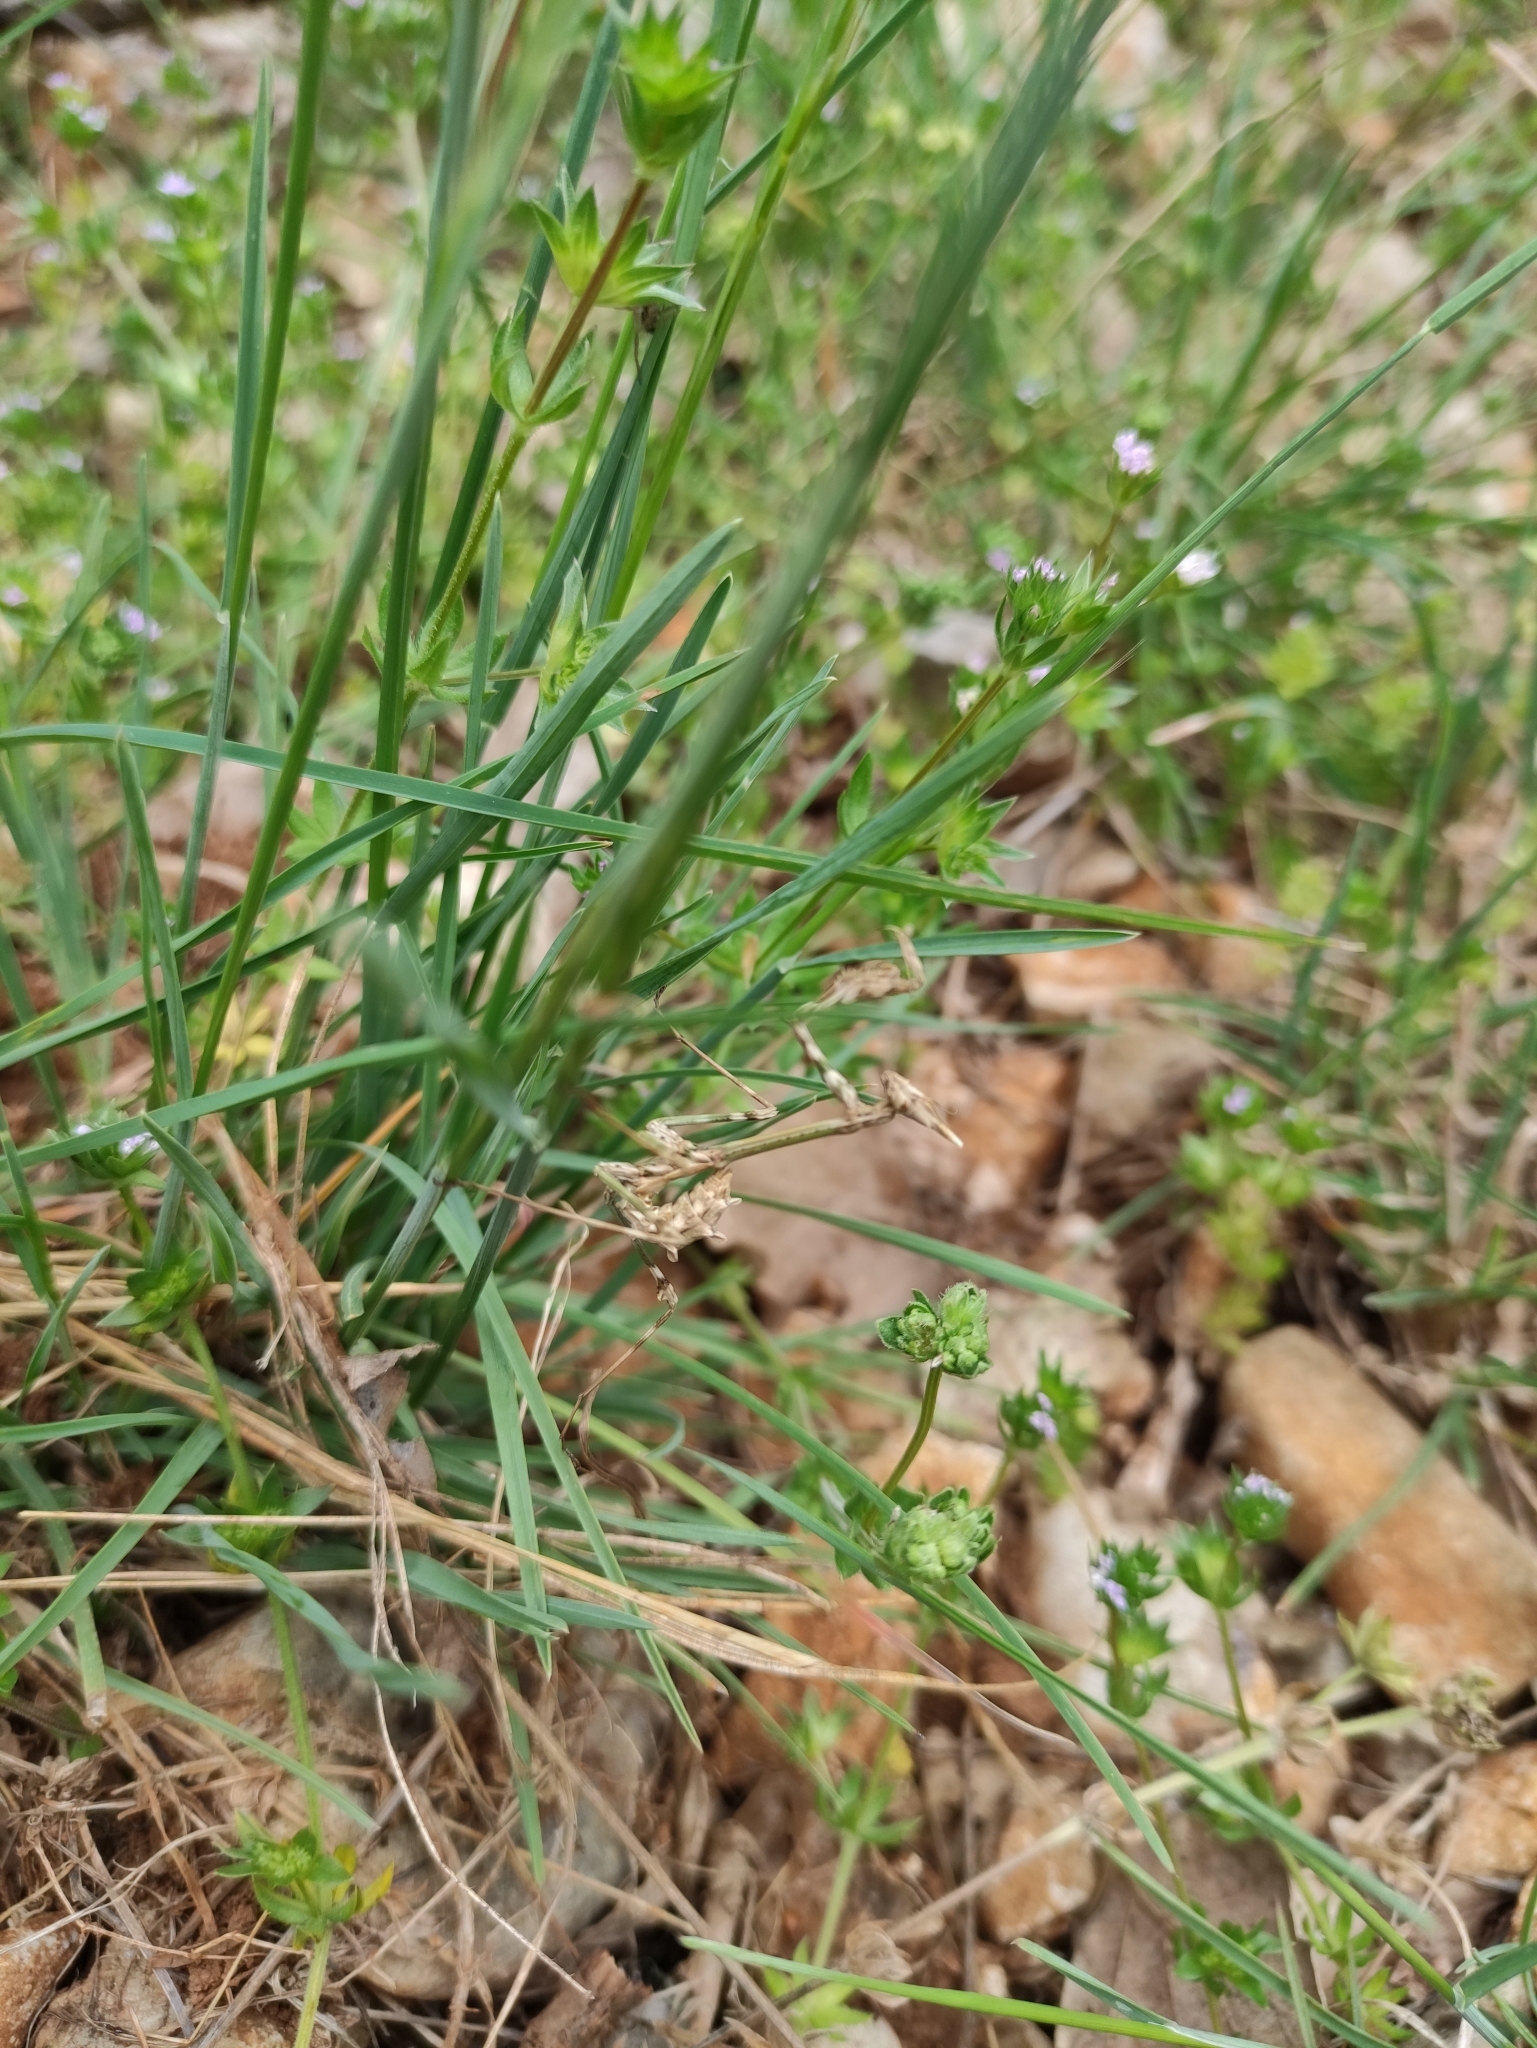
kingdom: Animalia
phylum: Arthropoda
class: Insecta
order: Mantodea
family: Empusidae
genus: Empusa
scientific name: Empusa pennata
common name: Conehead mantis
